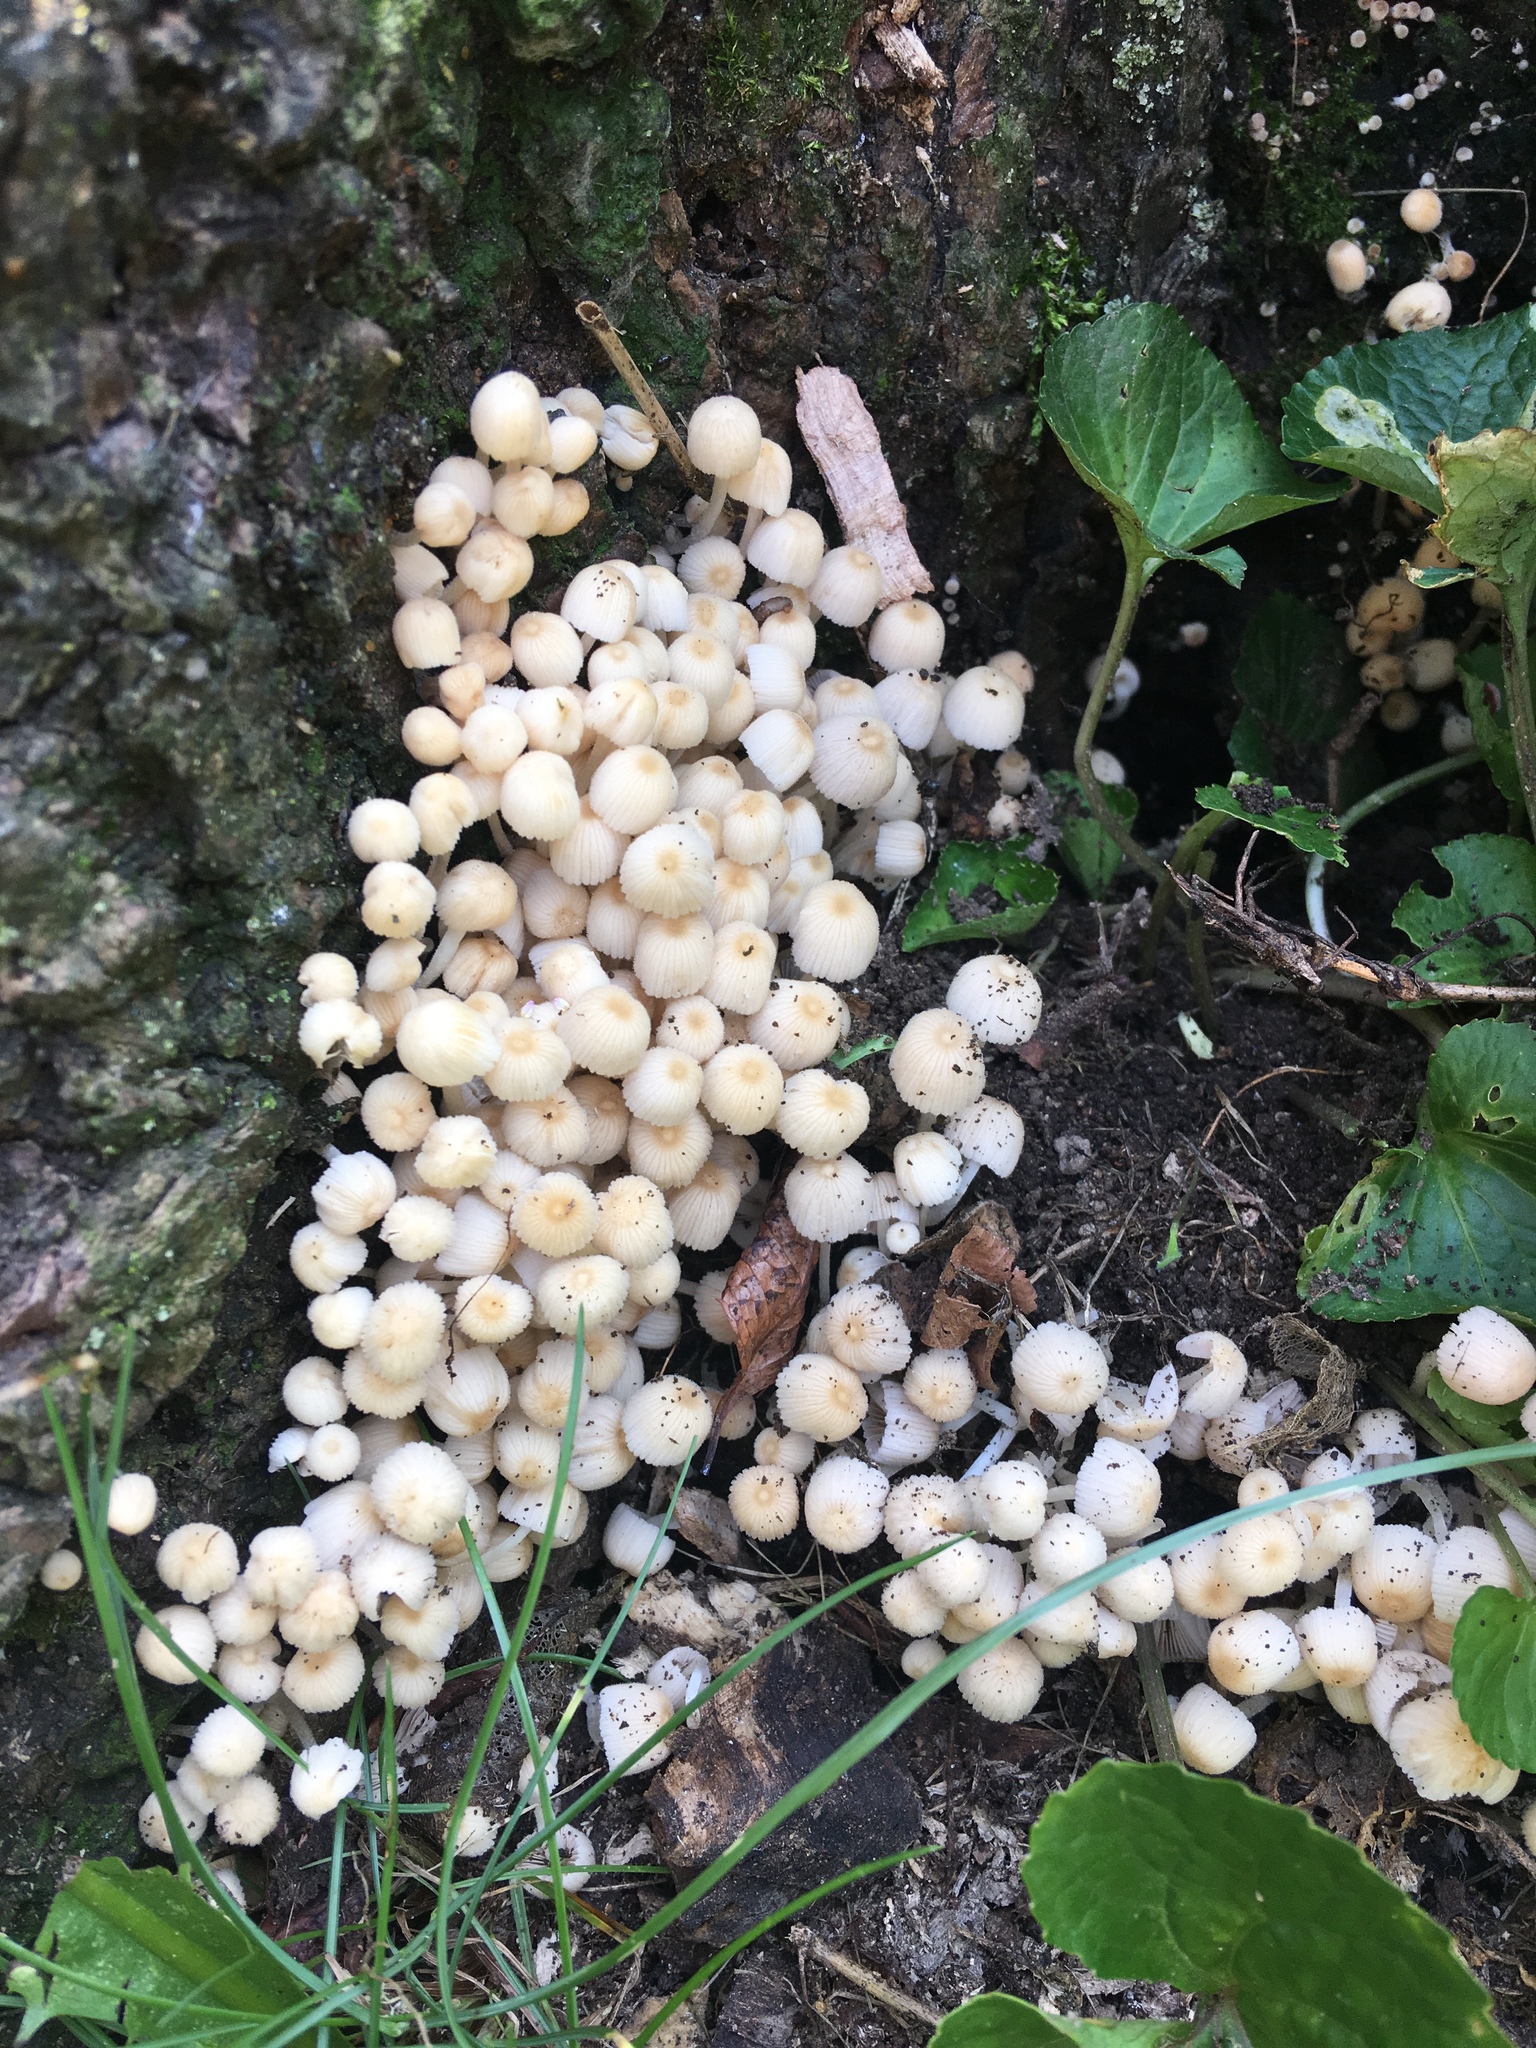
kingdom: Fungi
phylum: Basidiomycota
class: Agaricomycetes
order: Agaricales
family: Psathyrellaceae
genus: Coprinellus
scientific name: Coprinellus disseminatus
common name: Fairies' bonnets
